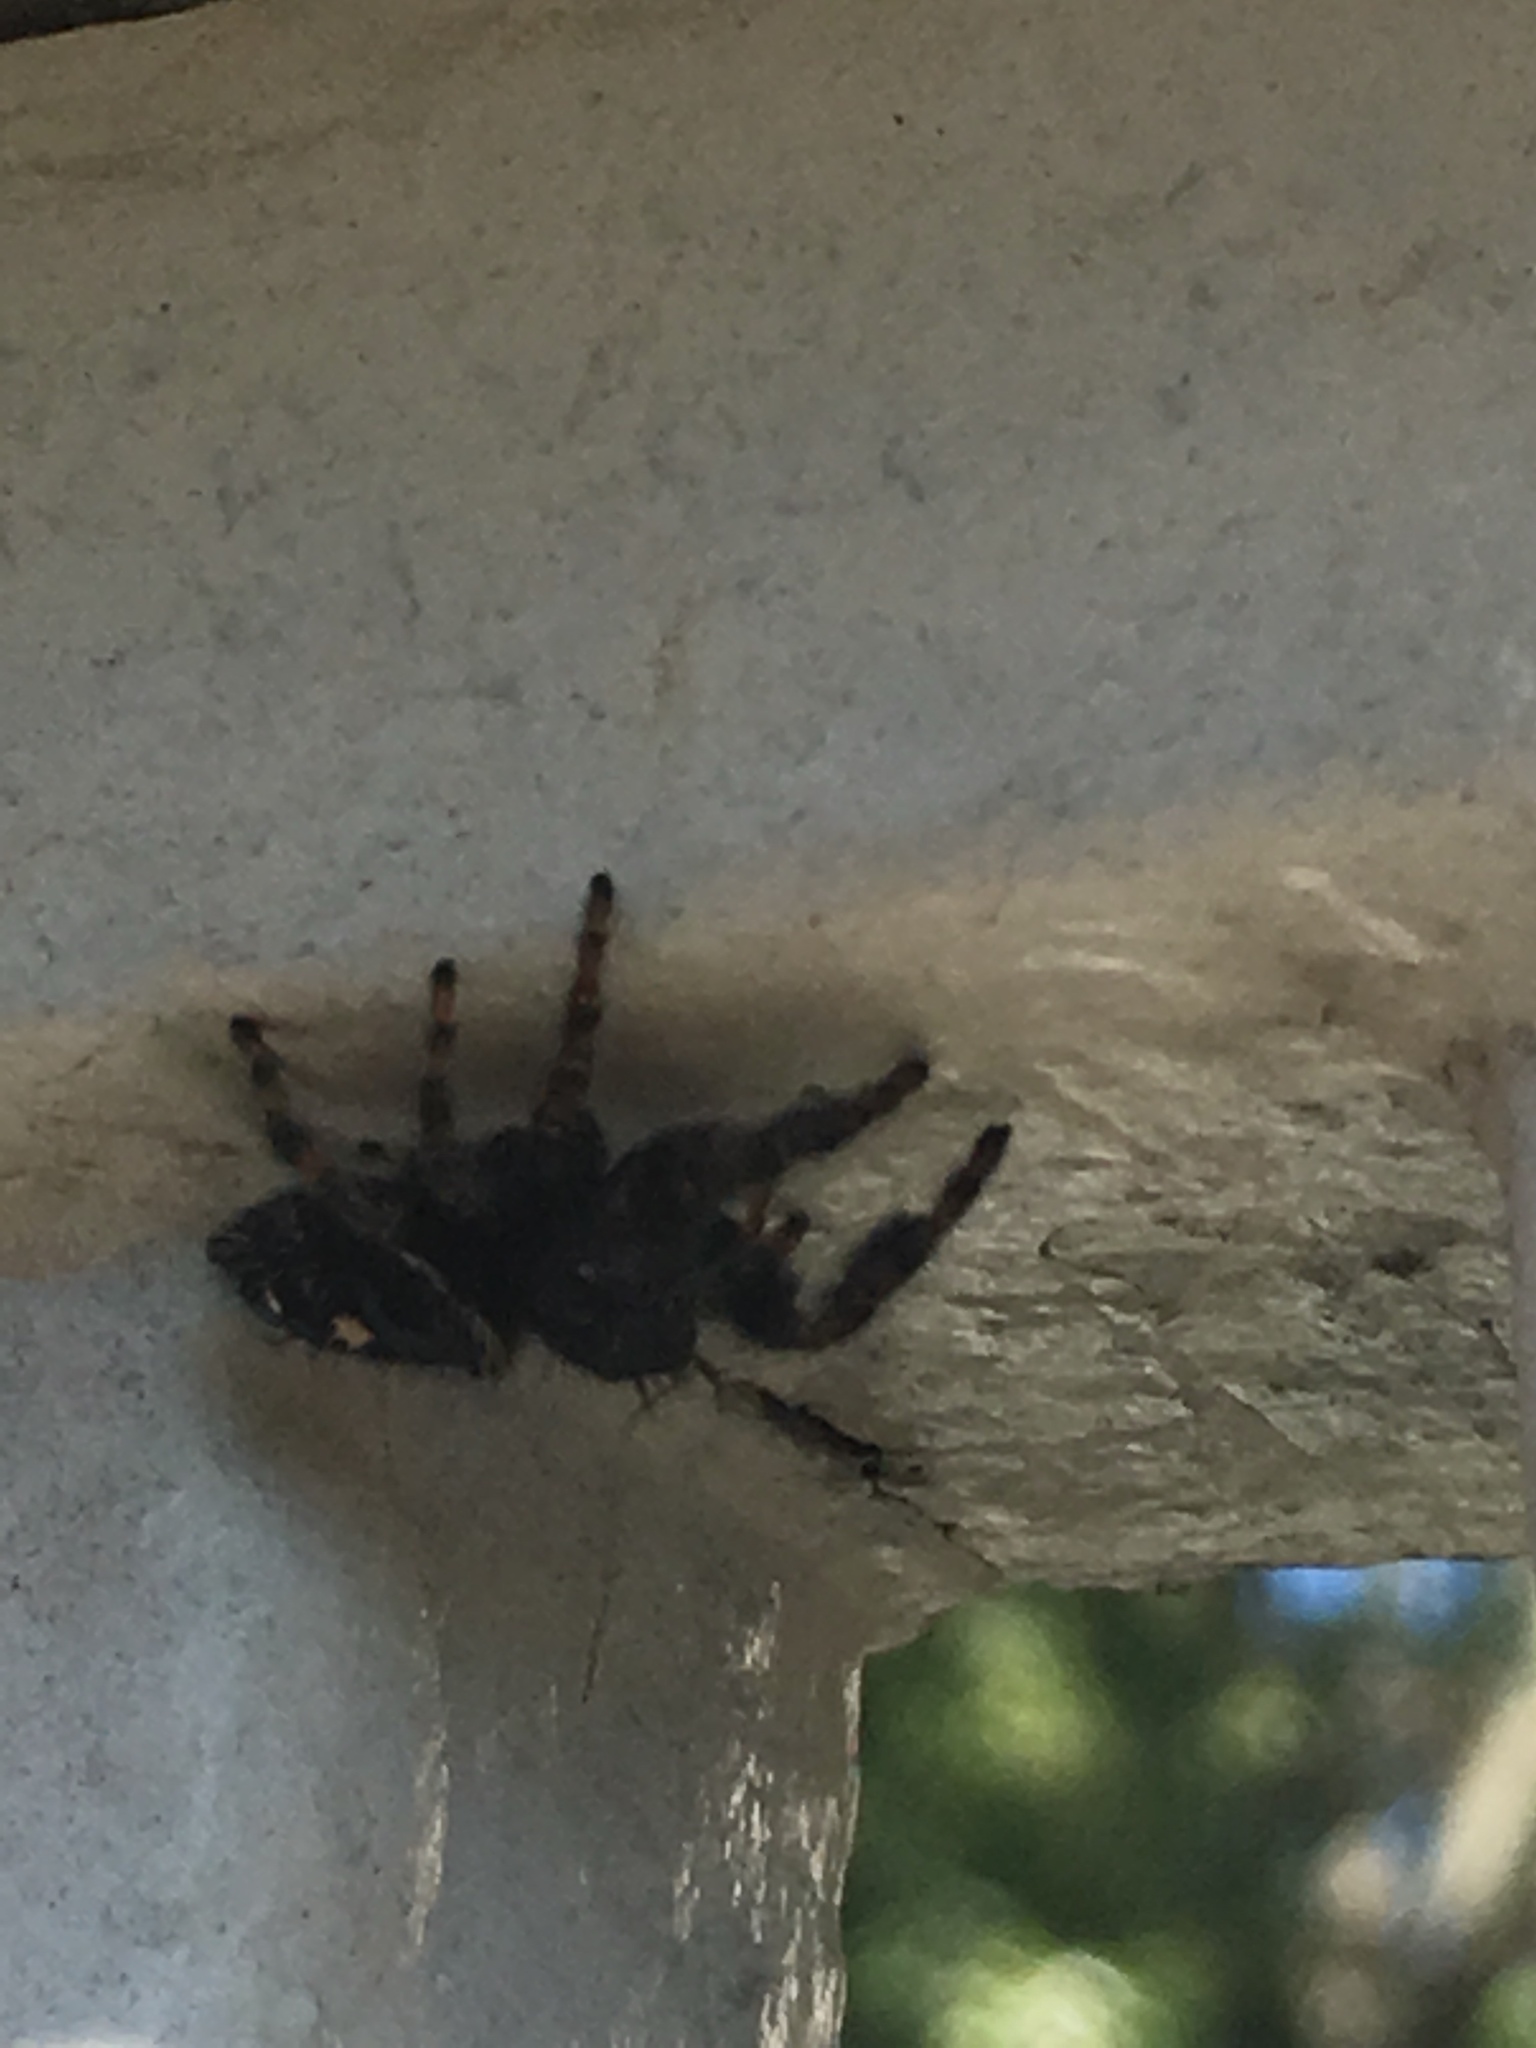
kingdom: Animalia
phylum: Arthropoda
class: Arachnida
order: Araneae
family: Salticidae
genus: Phidippus
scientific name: Phidippus audax
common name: Bold jumper
